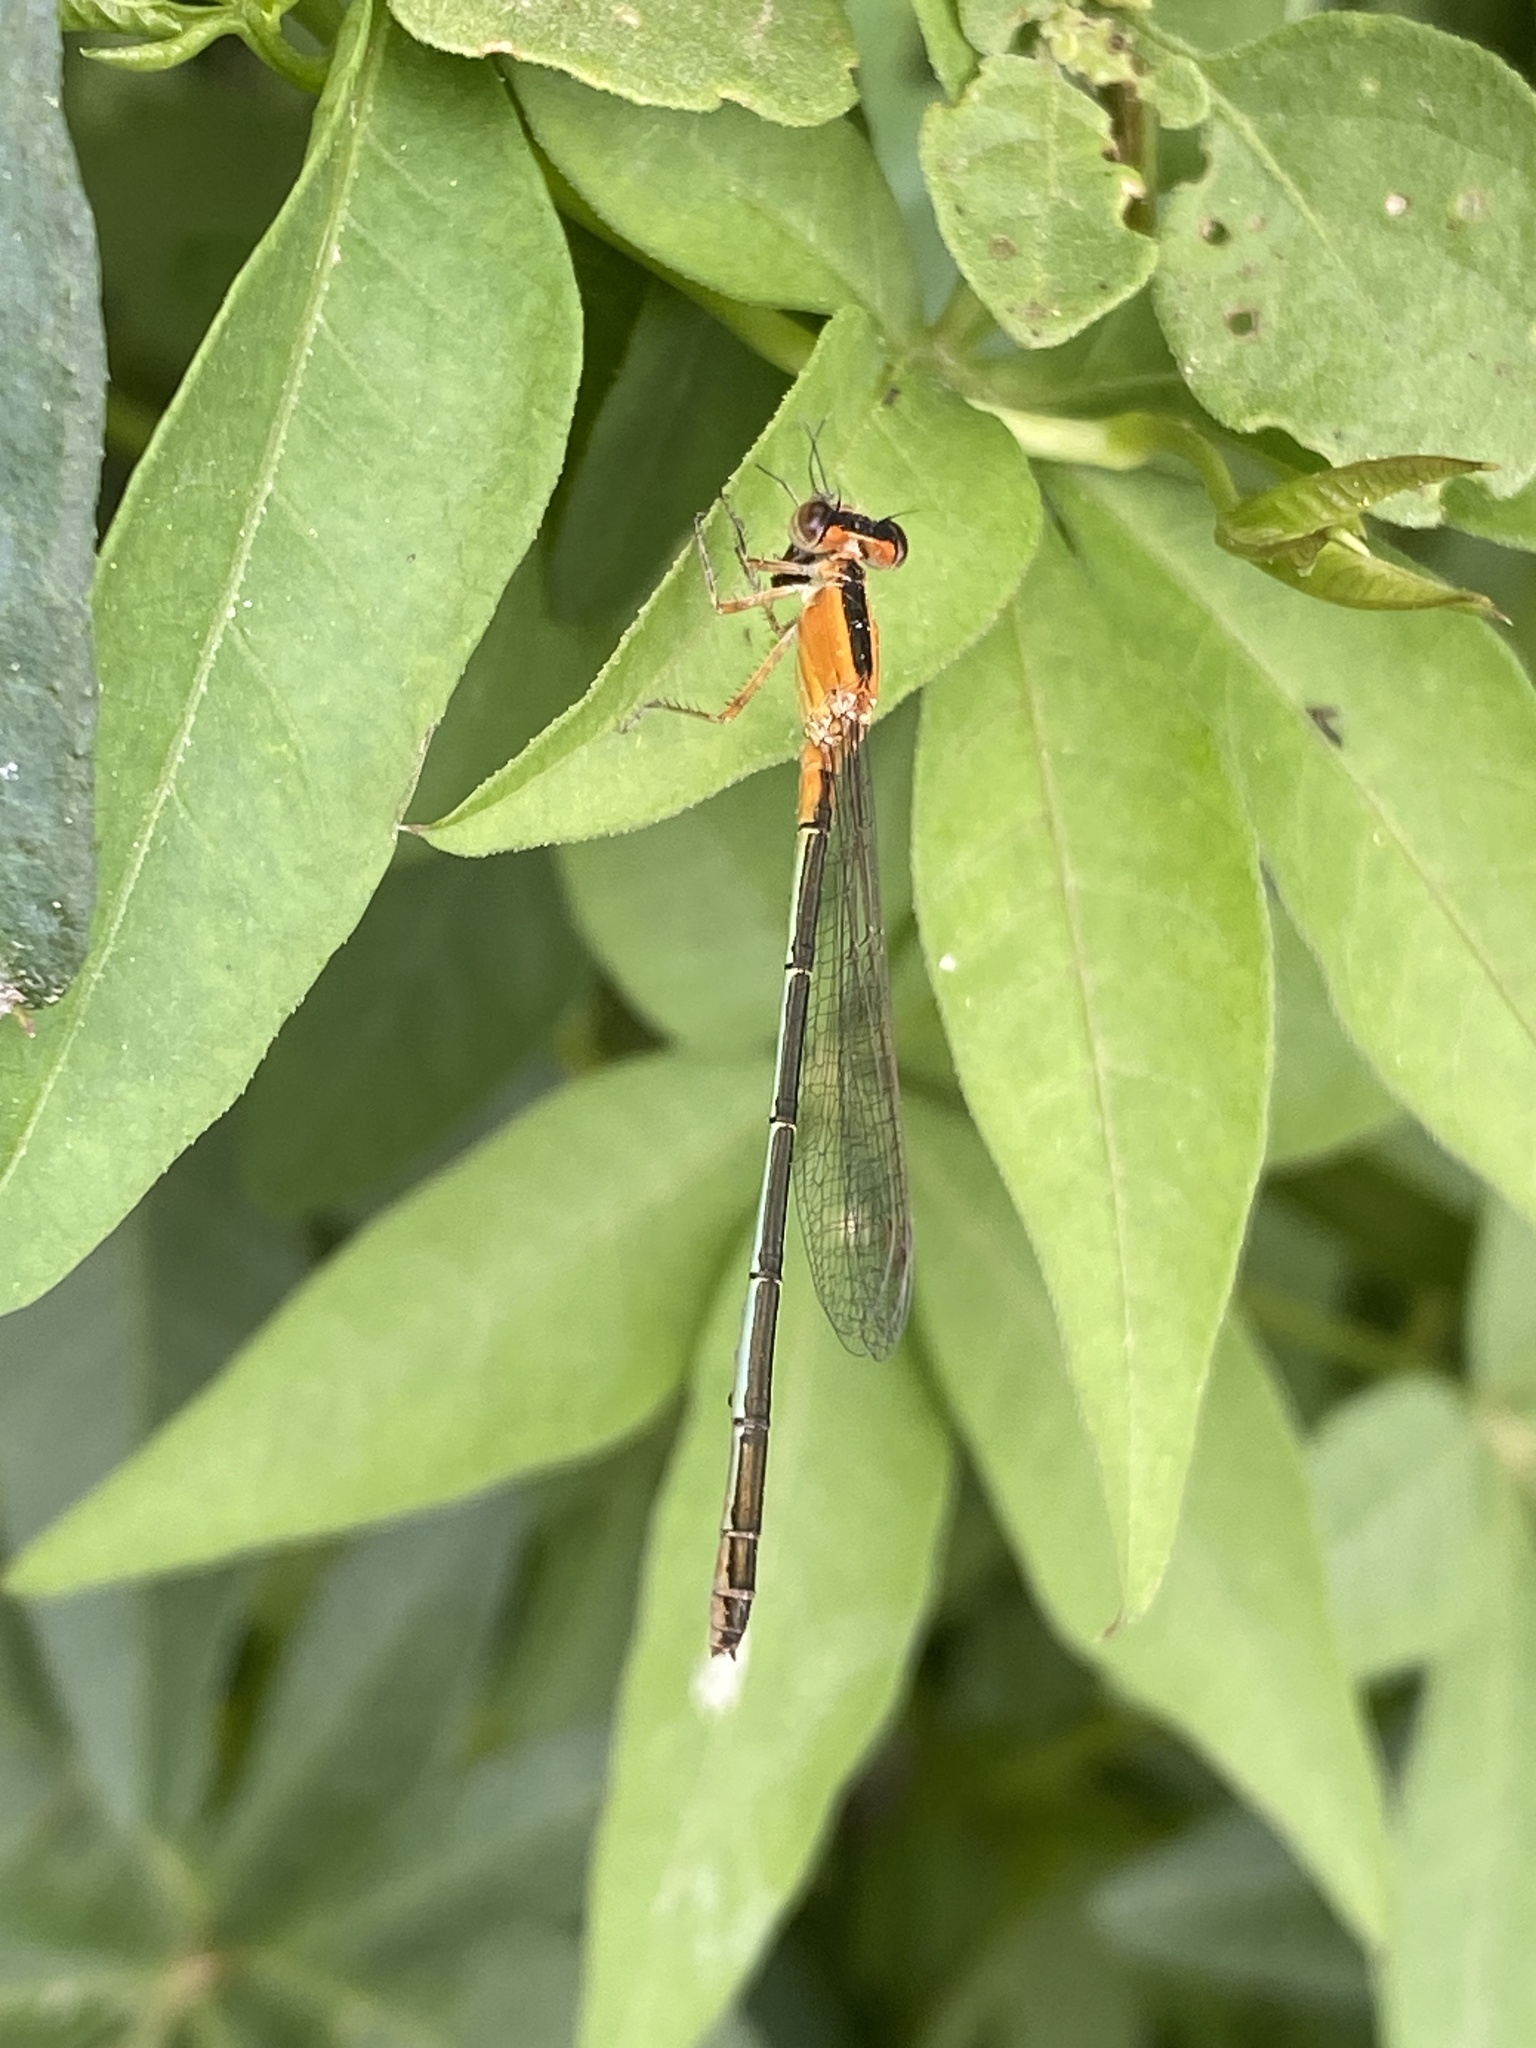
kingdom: Animalia
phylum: Arthropoda
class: Insecta
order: Odonata
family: Coenagrionidae
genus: Ischnura
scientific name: Ischnura fluviatilis
